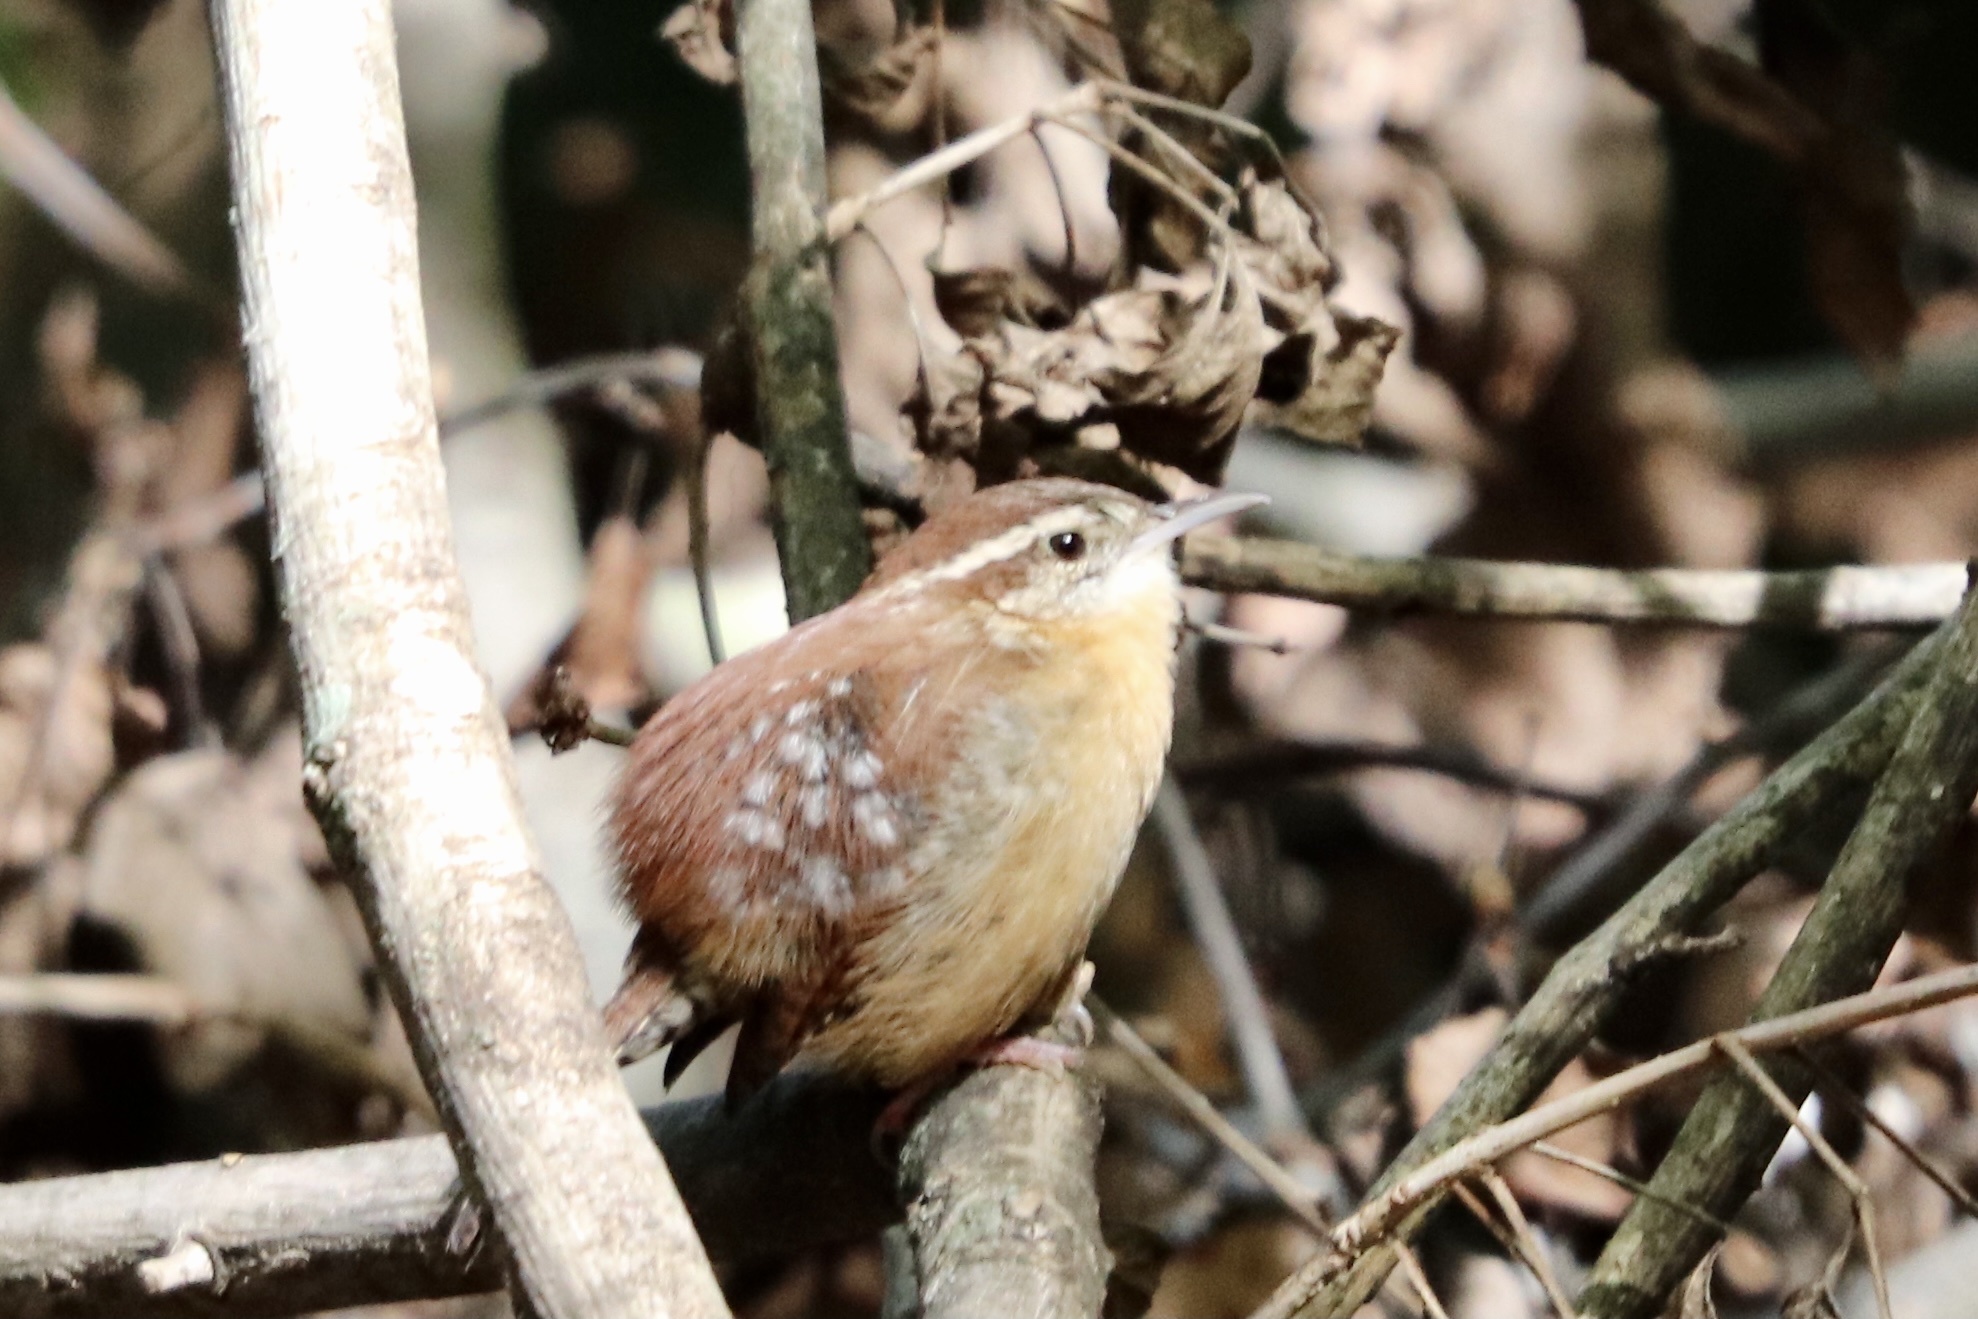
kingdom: Animalia
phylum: Chordata
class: Aves
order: Passeriformes
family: Troglodytidae
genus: Thryothorus
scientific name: Thryothorus ludovicianus
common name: Carolina wren
